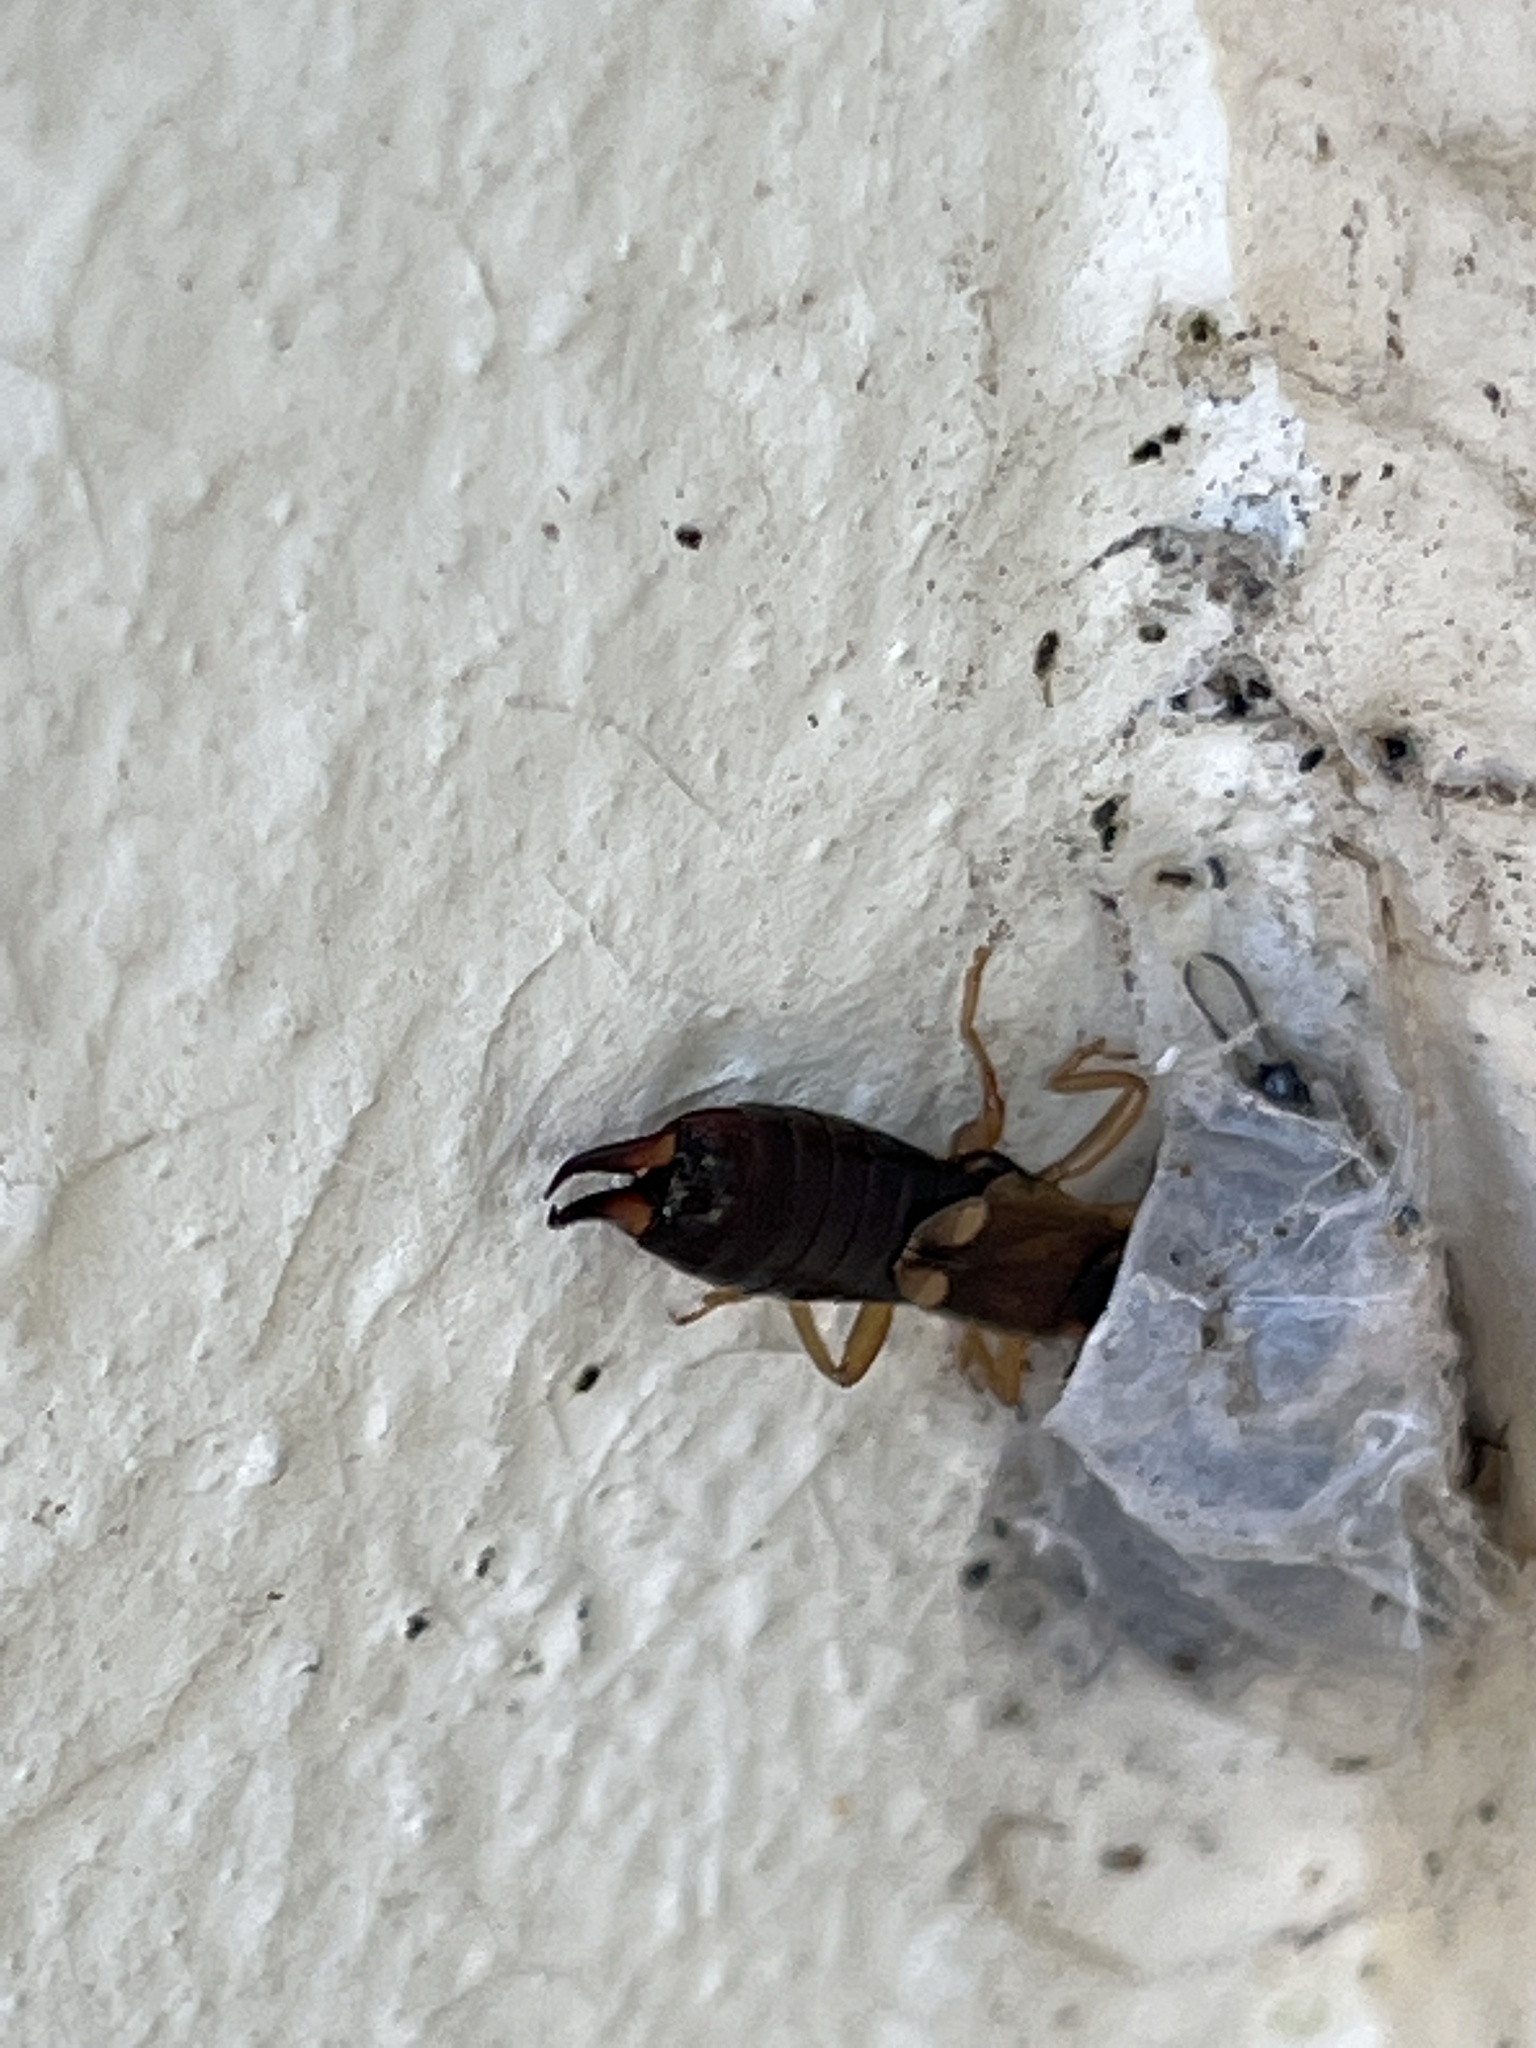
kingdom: Animalia
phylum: Arthropoda
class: Insecta
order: Dermaptera
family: Forficulidae
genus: Forficula
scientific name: Forficula
